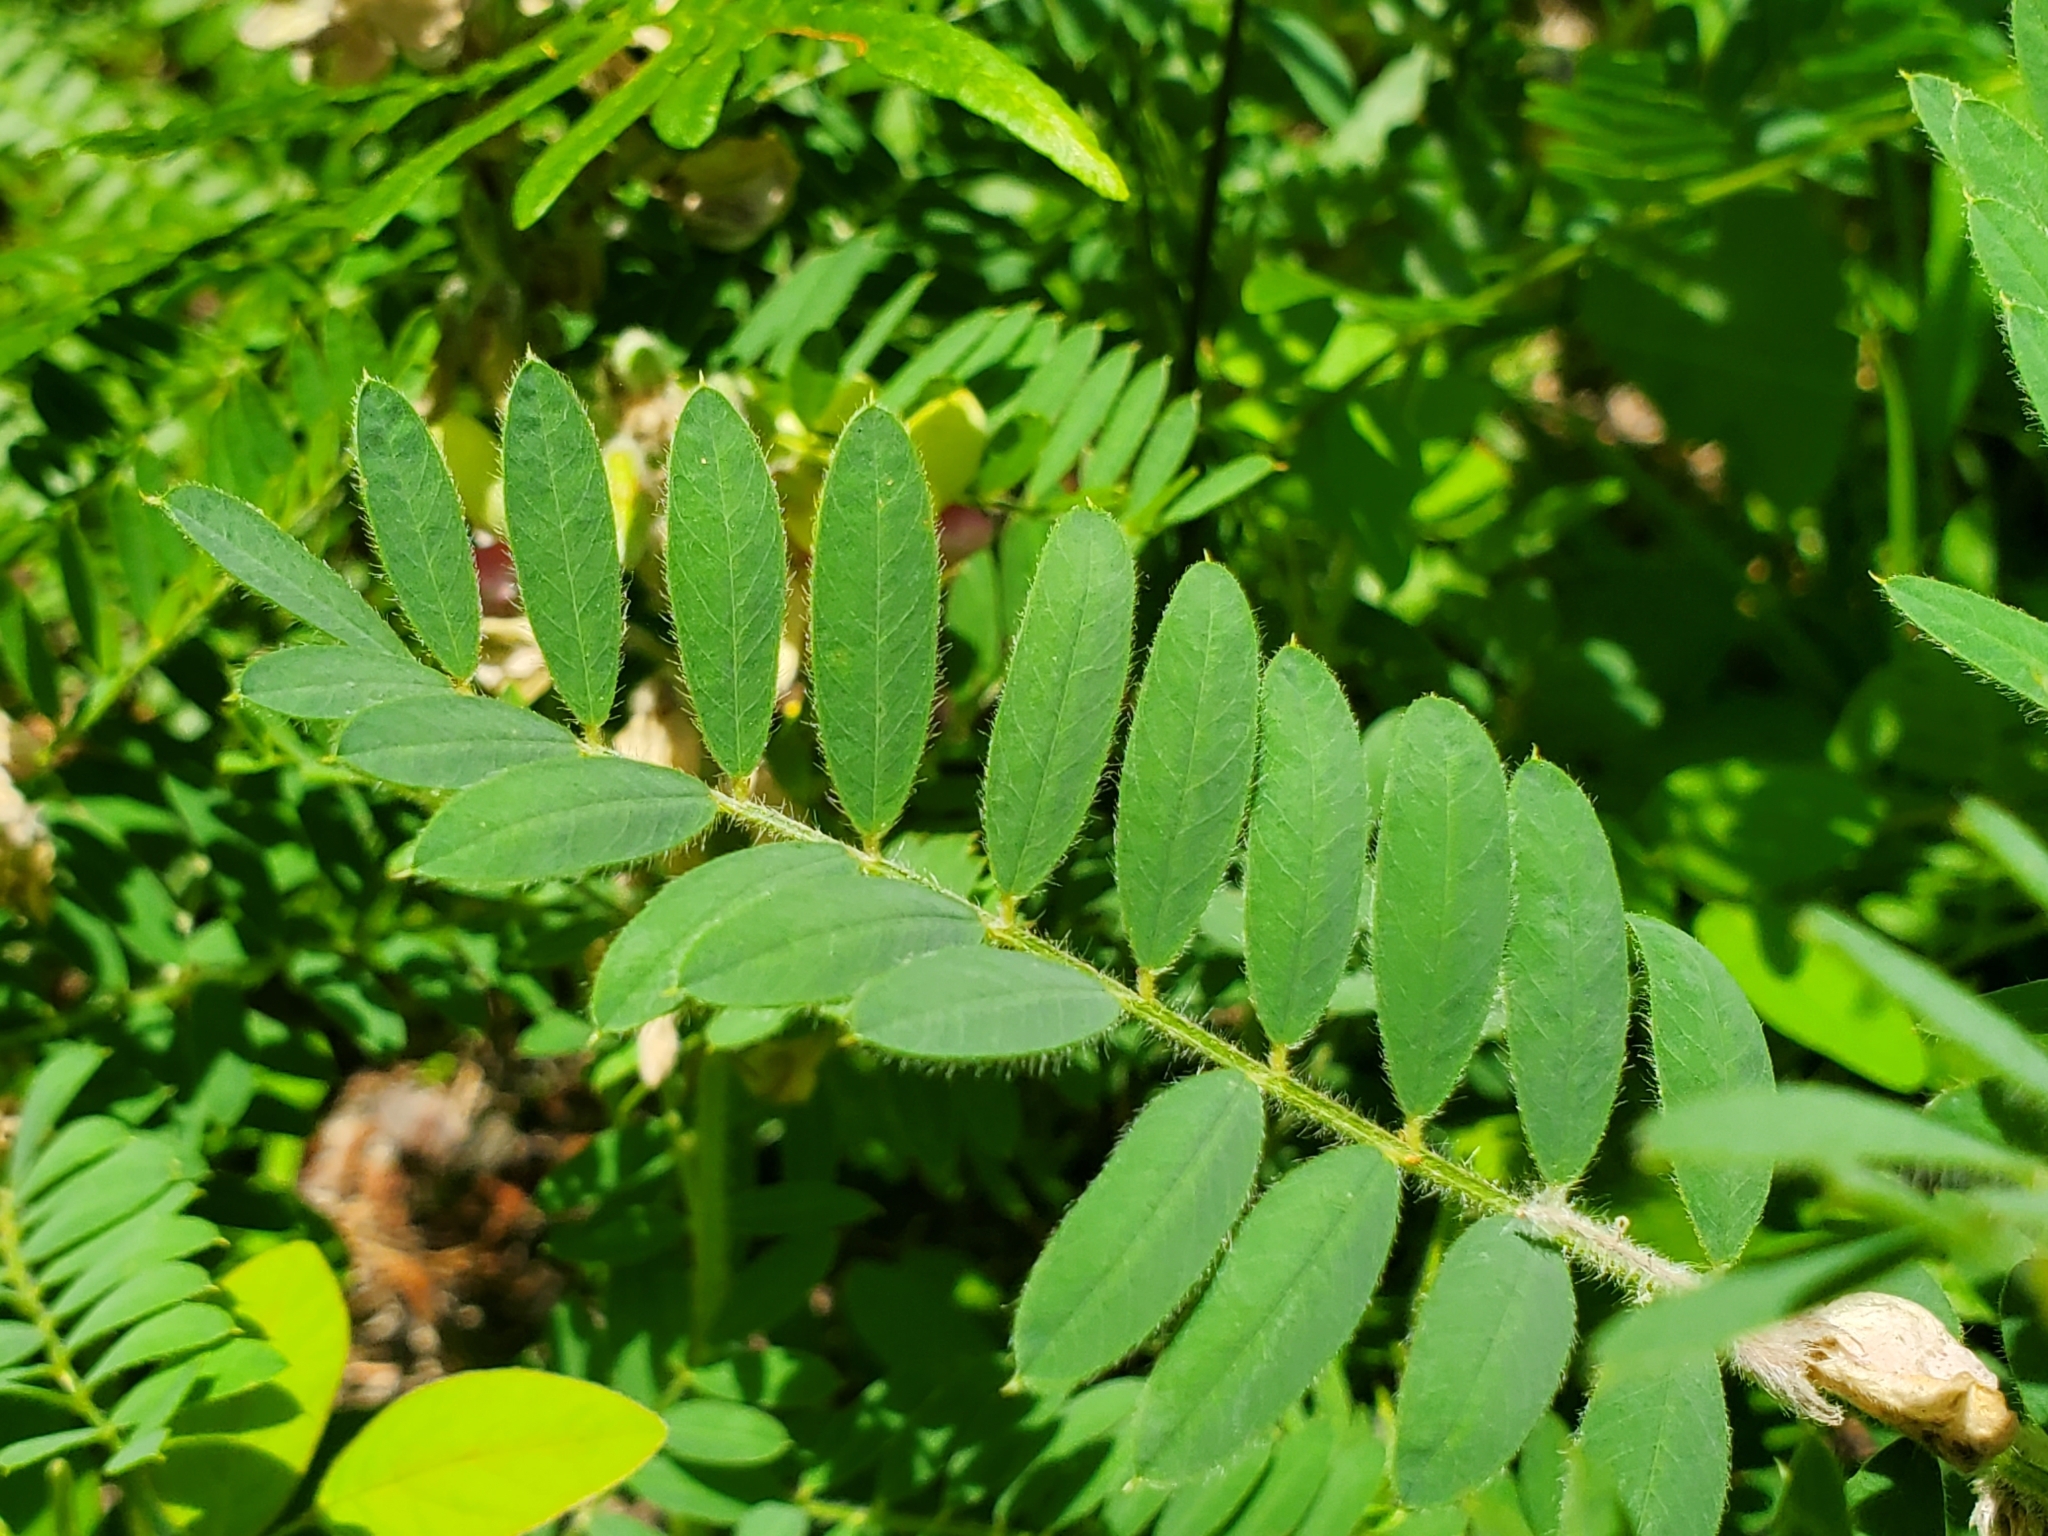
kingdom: Plantae
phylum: Tracheophyta
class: Magnoliopsida
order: Fabales
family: Fabaceae
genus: Tephrosia
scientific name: Tephrosia virginiana
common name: Rabbit-pea
